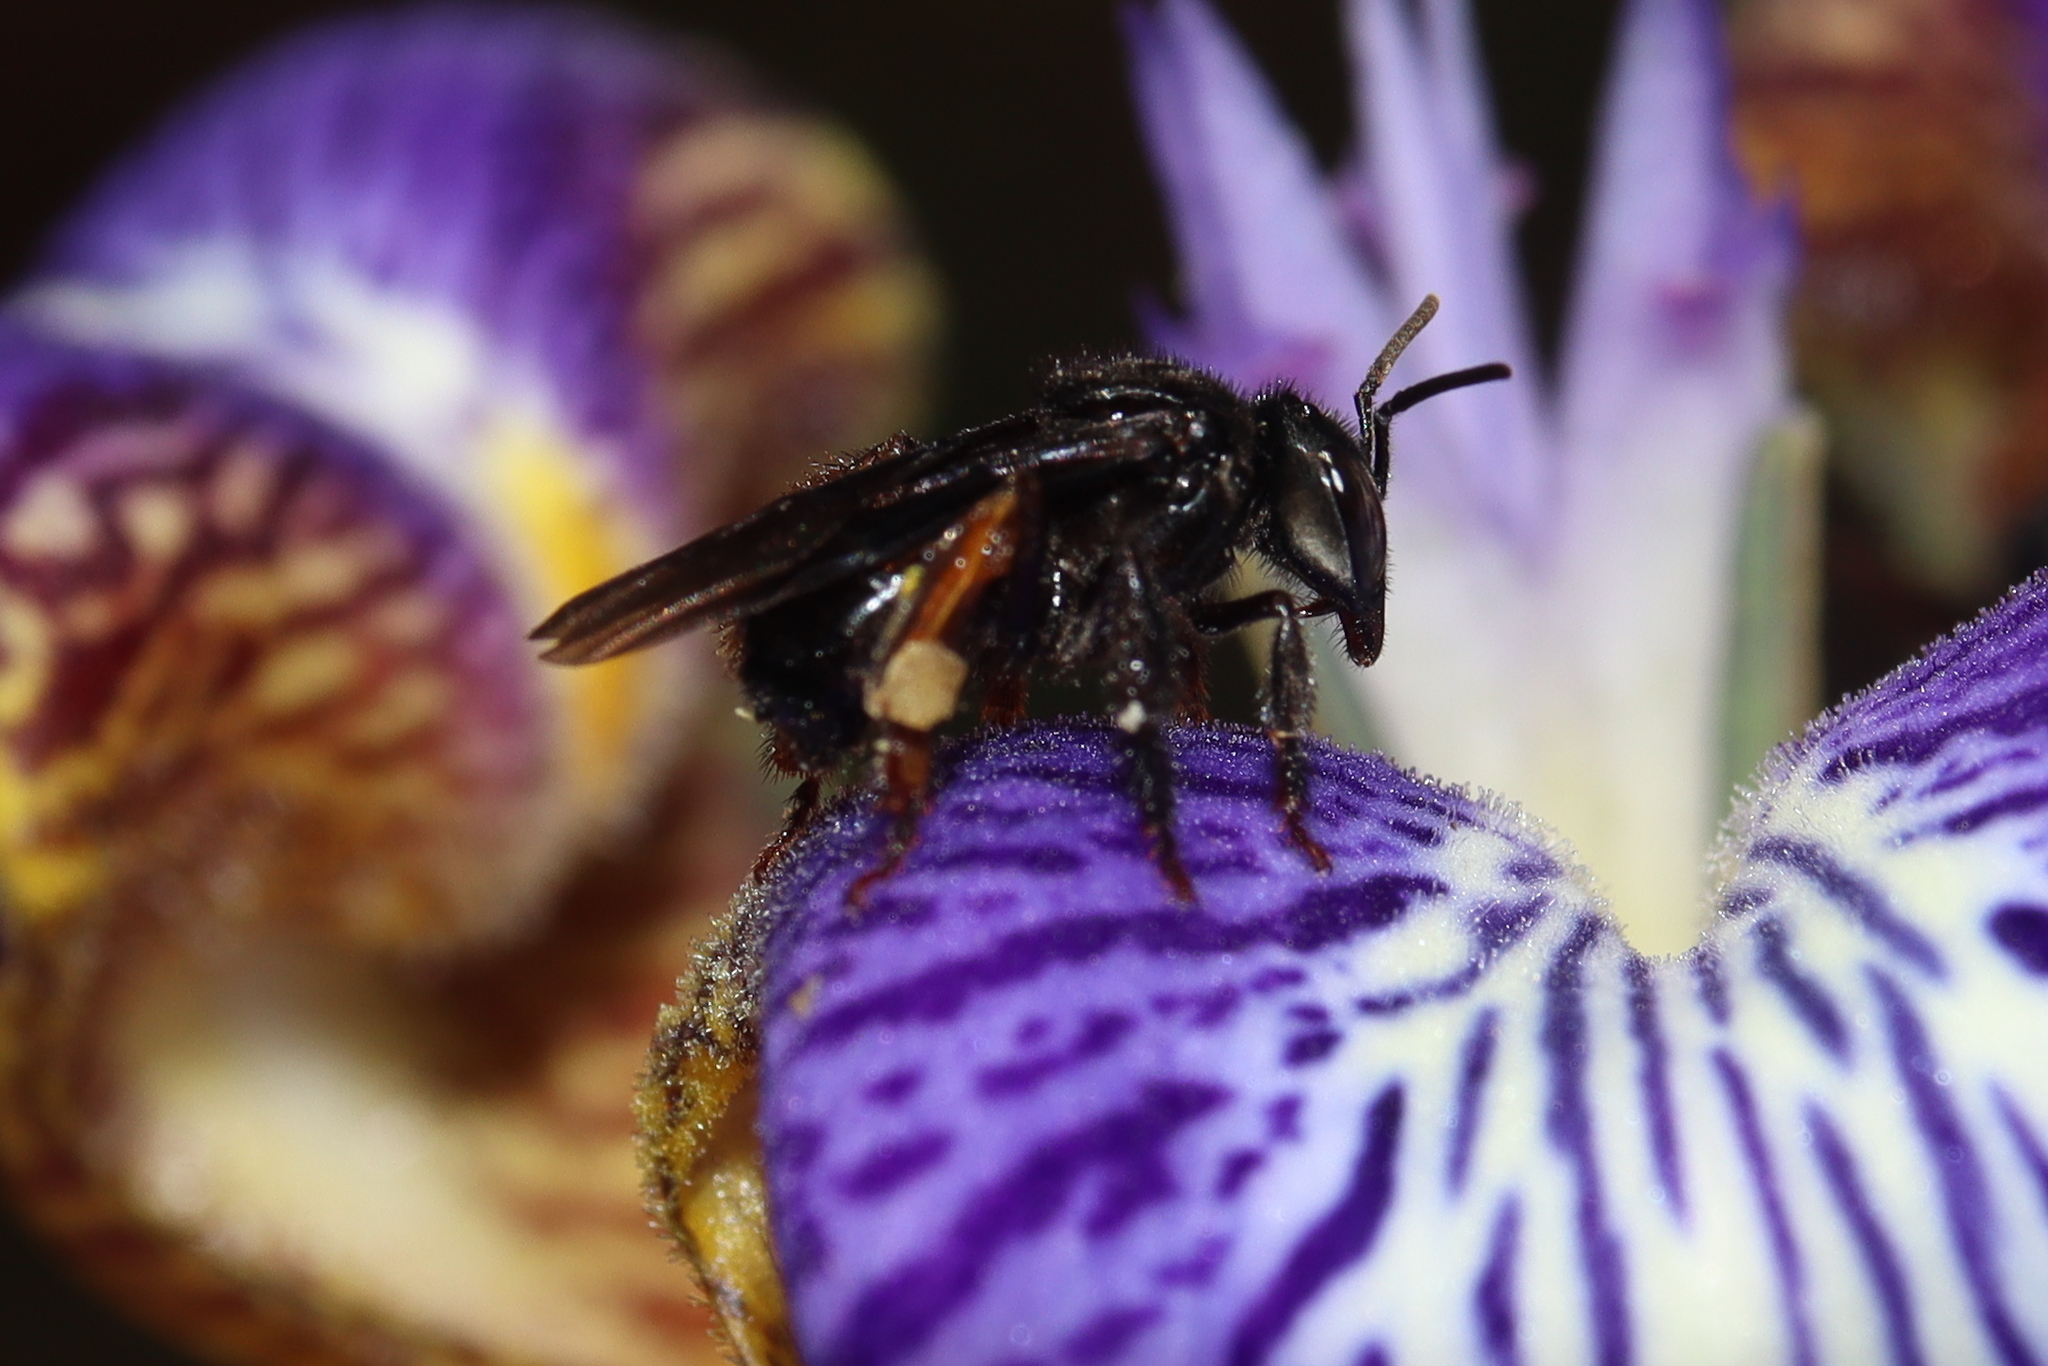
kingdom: Animalia
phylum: Arthropoda
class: Insecta
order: Hymenoptera
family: Apidae
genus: Trigona
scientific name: Trigona spinipes
